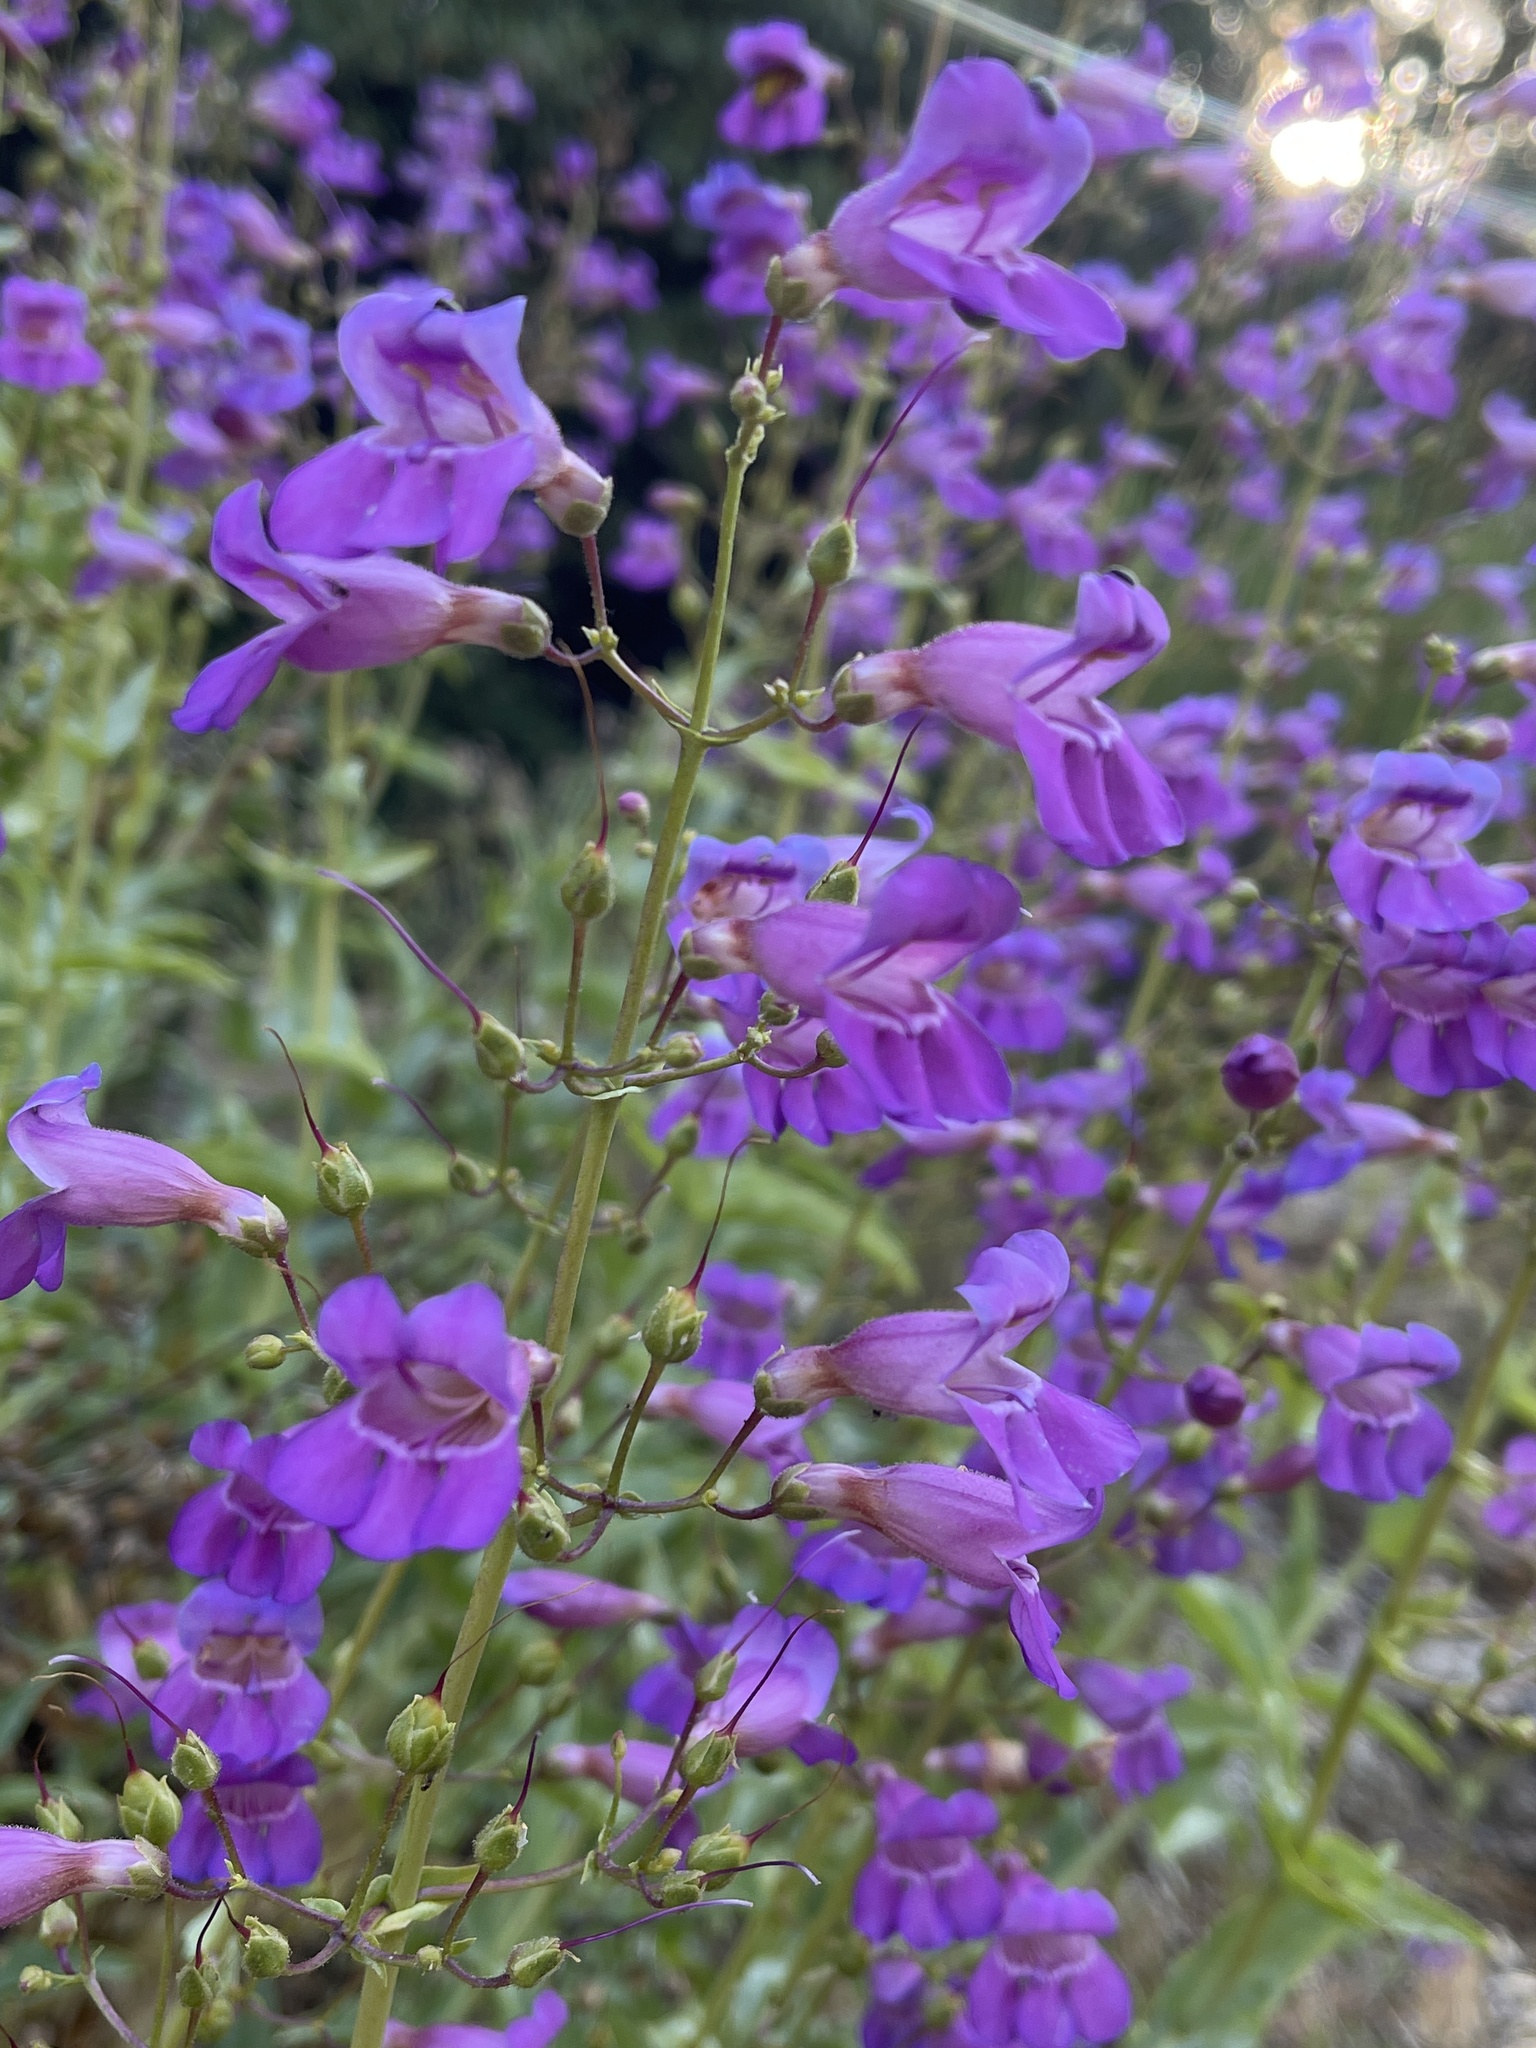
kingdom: Plantae
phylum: Tracheophyta
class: Magnoliopsida
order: Lamiales
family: Plantaginaceae
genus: Penstemon
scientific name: Penstemon spectabilis
